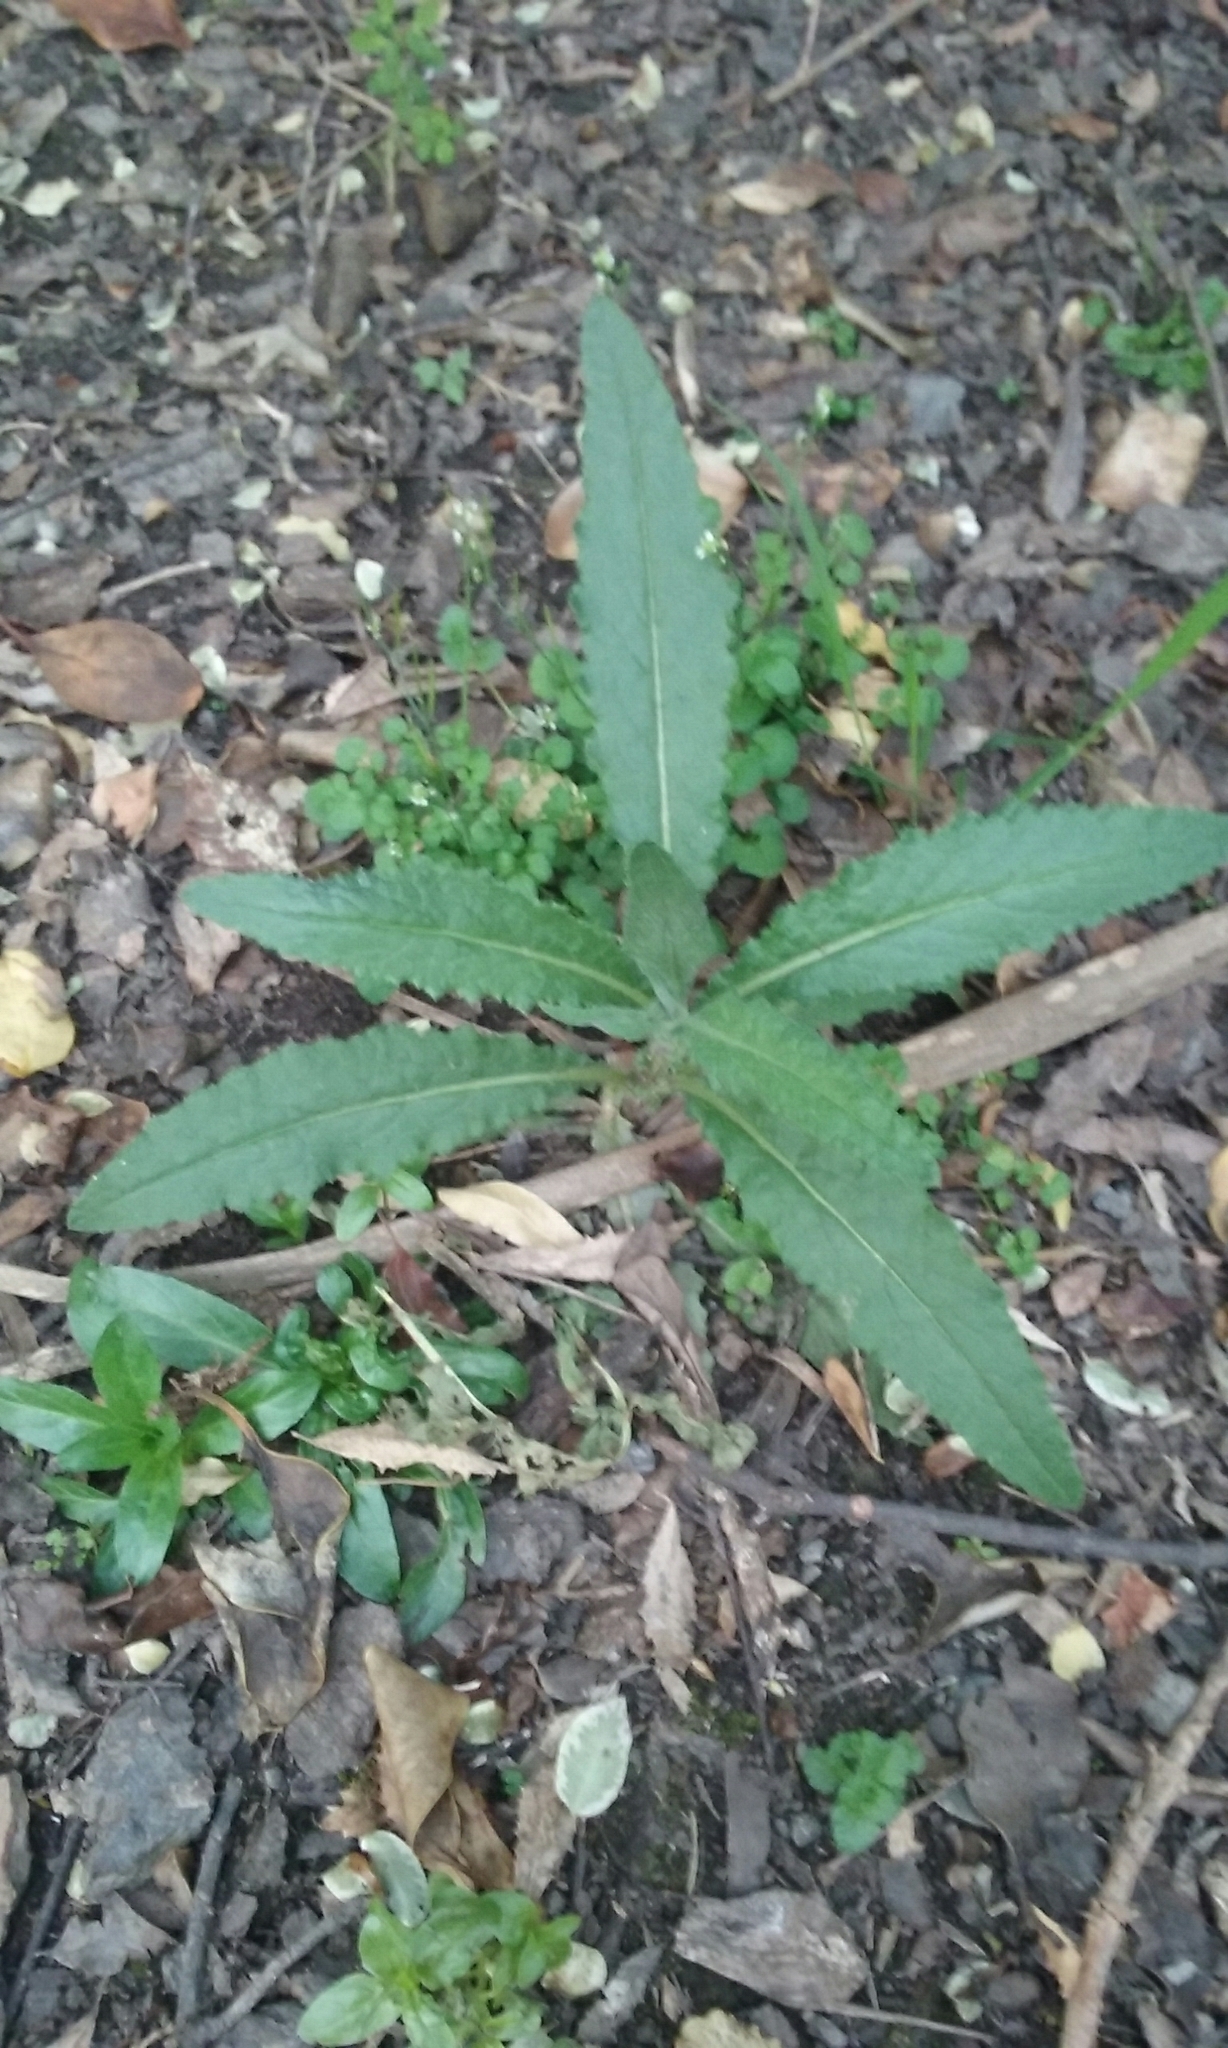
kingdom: Plantae
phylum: Tracheophyta
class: Magnoliopsida
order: Asterales
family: Asteraceae
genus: Senecio
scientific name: Senecio minimus
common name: Toothed fireweed
